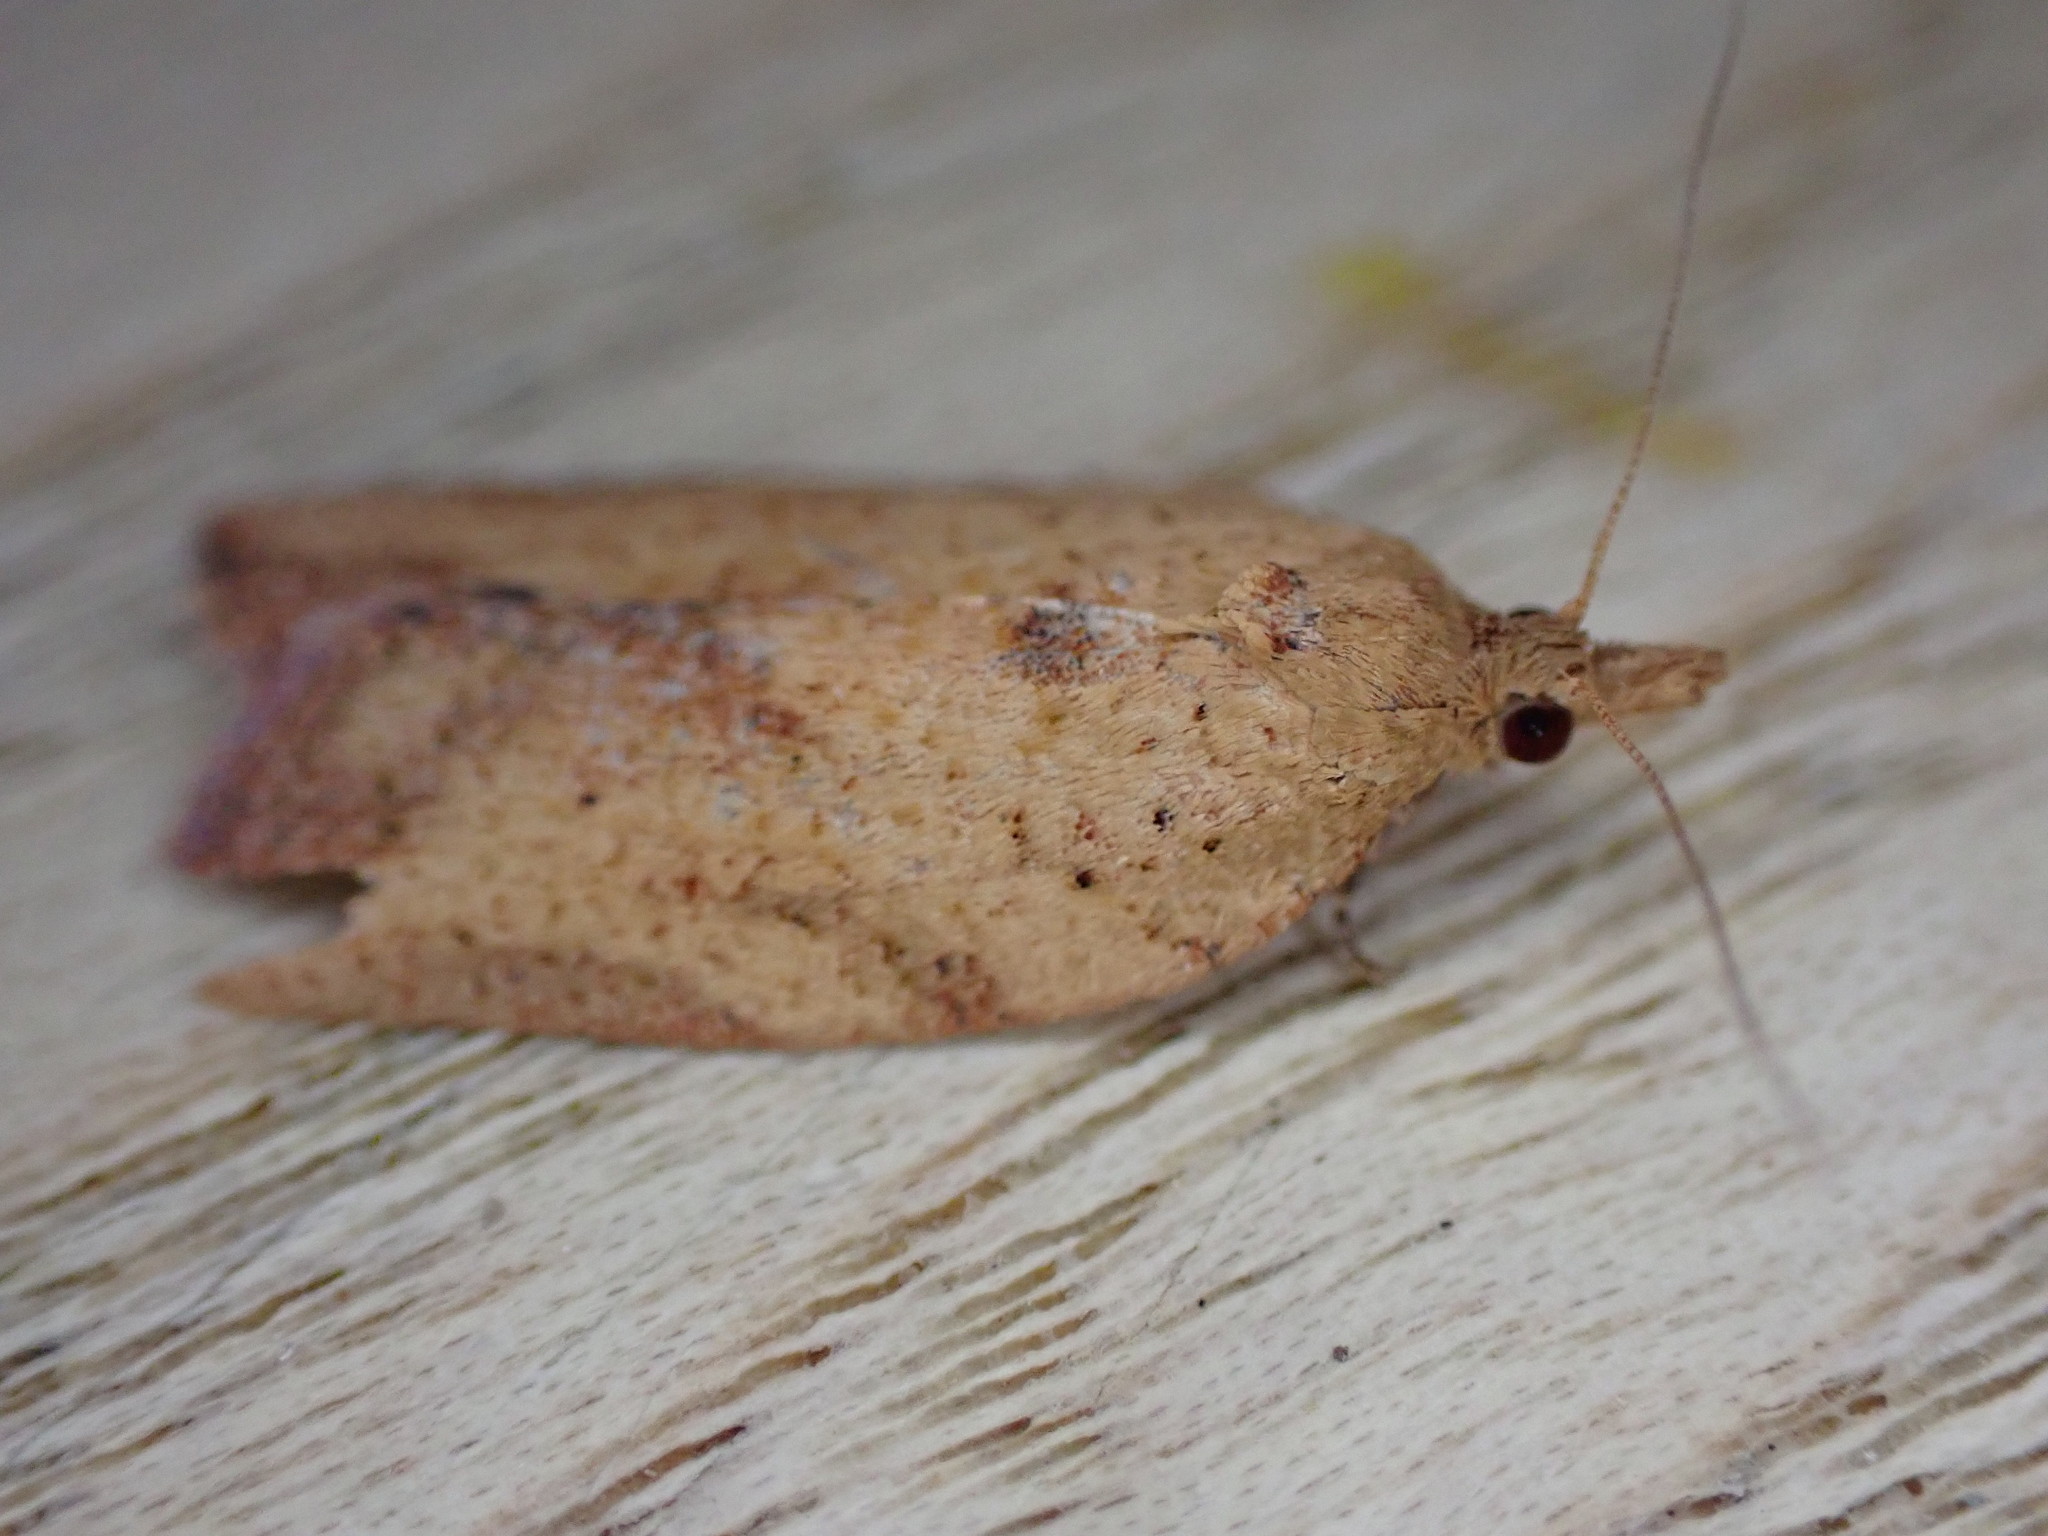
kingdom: Animalia
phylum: Arthropoda
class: Insecta
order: Lepidoptera
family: Tortricidae
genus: Epiphyas
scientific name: Epiphyas postvittana
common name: Light brown apple moth
